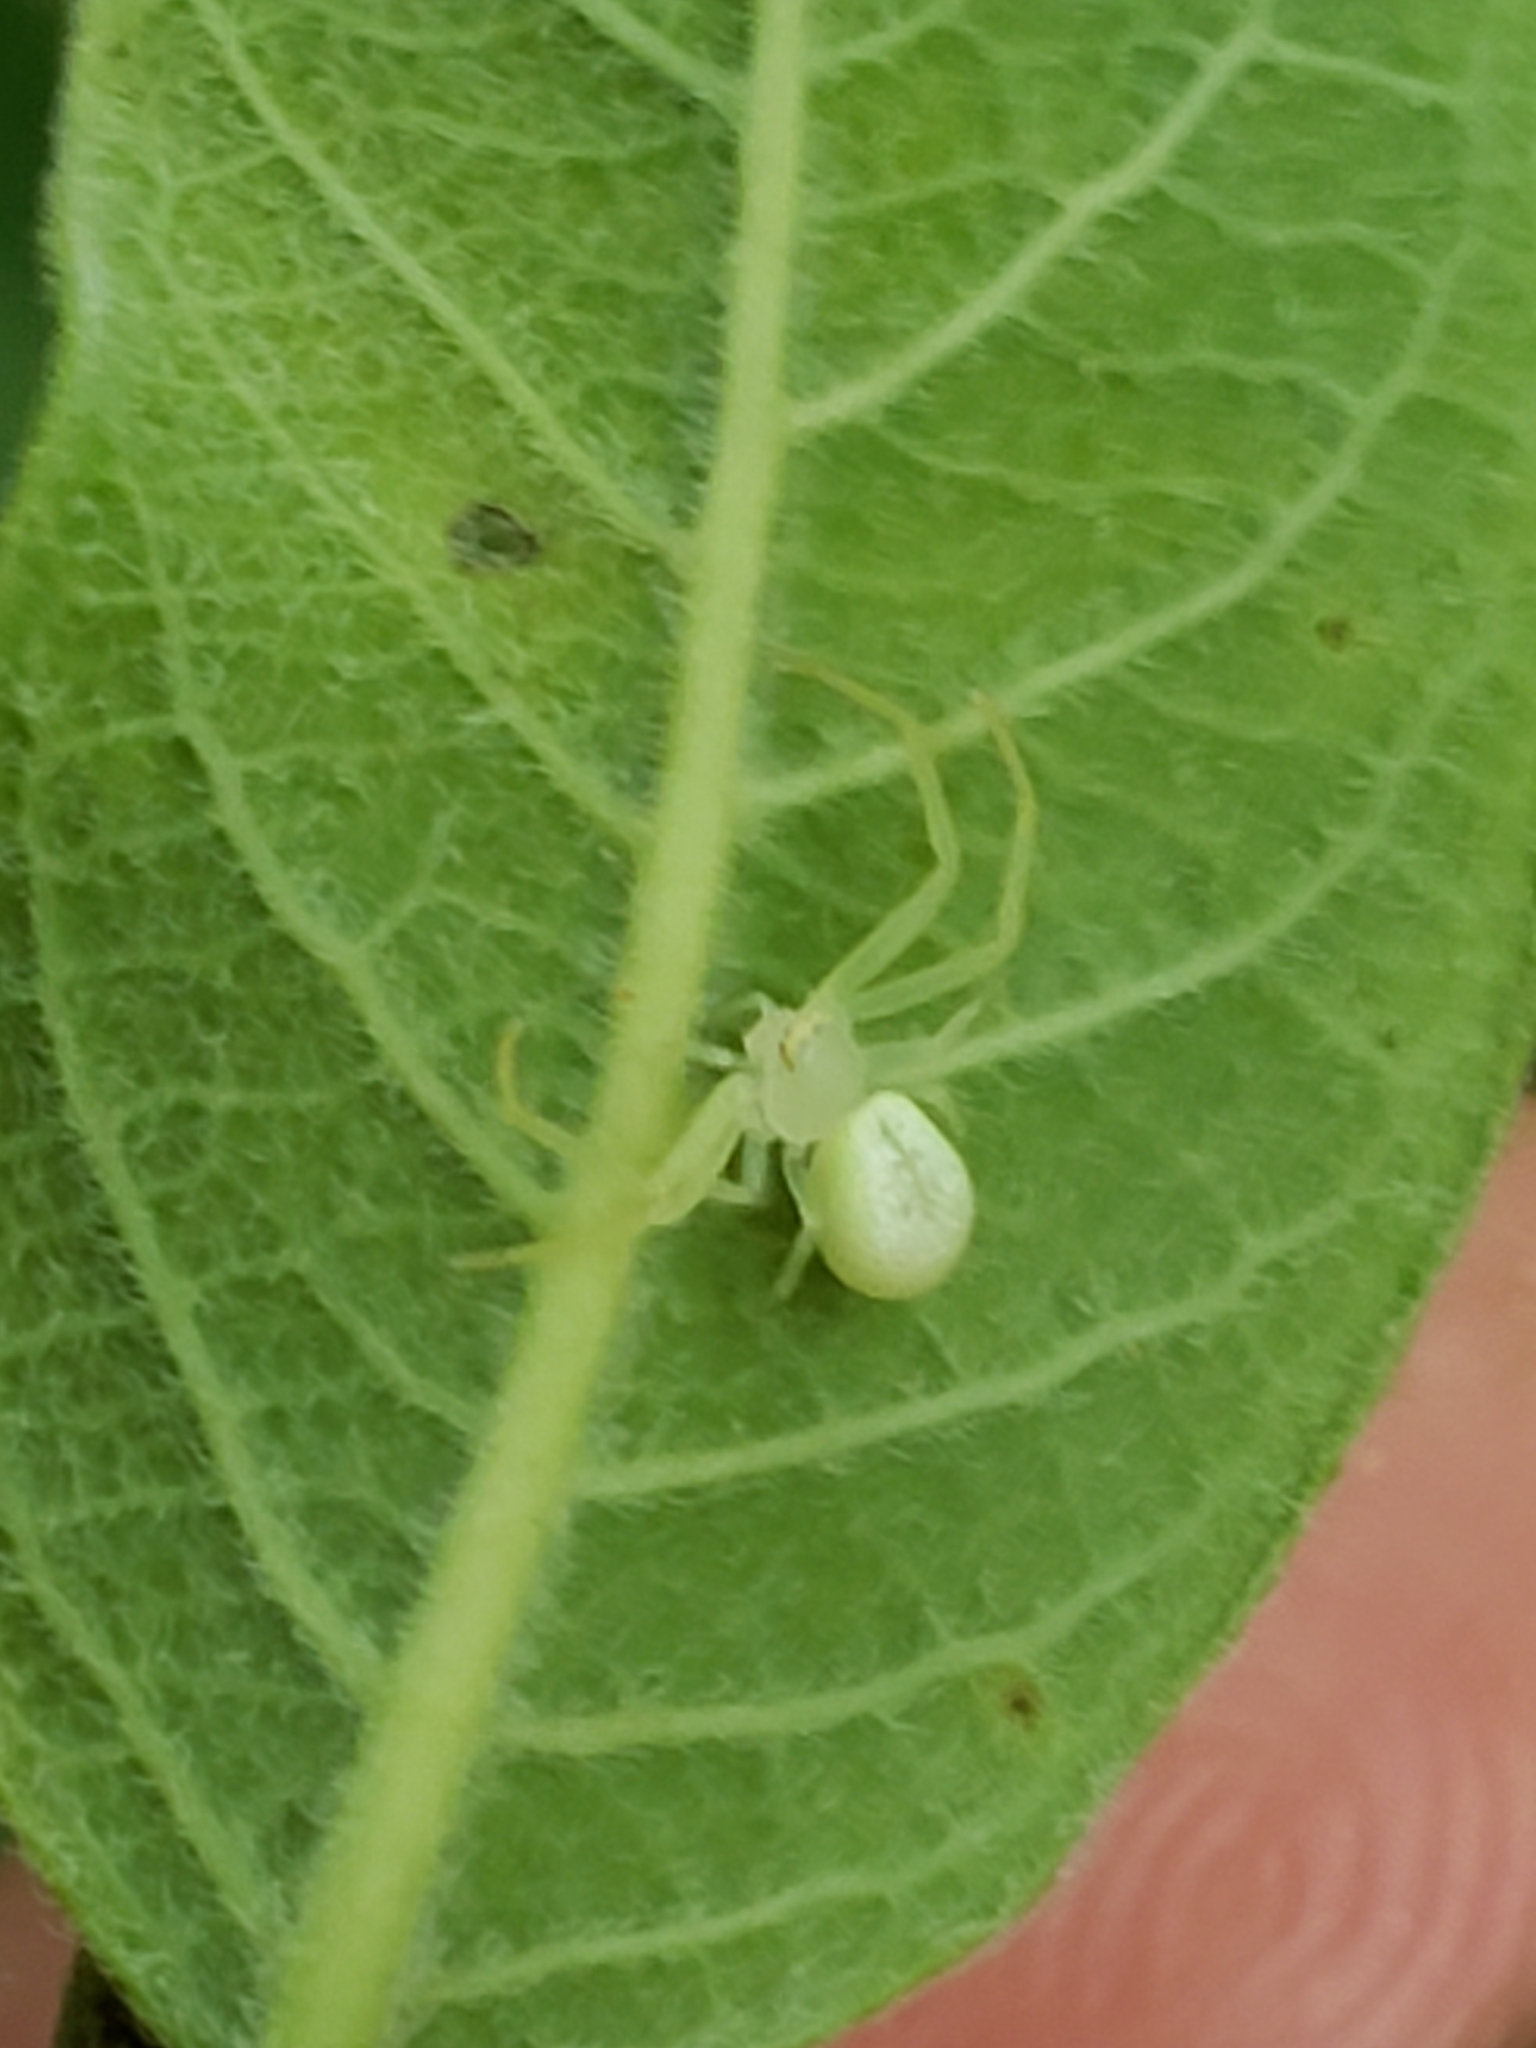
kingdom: Animalia
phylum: Arthropoda
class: Arachnida
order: Araneae
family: Thomisidae
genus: Misumessus
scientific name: Misumessus oblongus
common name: American green crab spider
